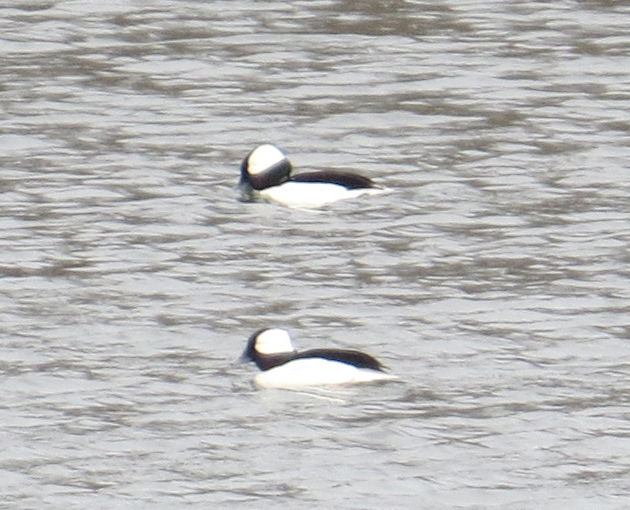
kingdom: Animalia
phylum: Chordata
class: Aves
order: Anseriformes
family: Anatidae
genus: Bucephala
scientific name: Bucephala albeola
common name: Bufflehead
